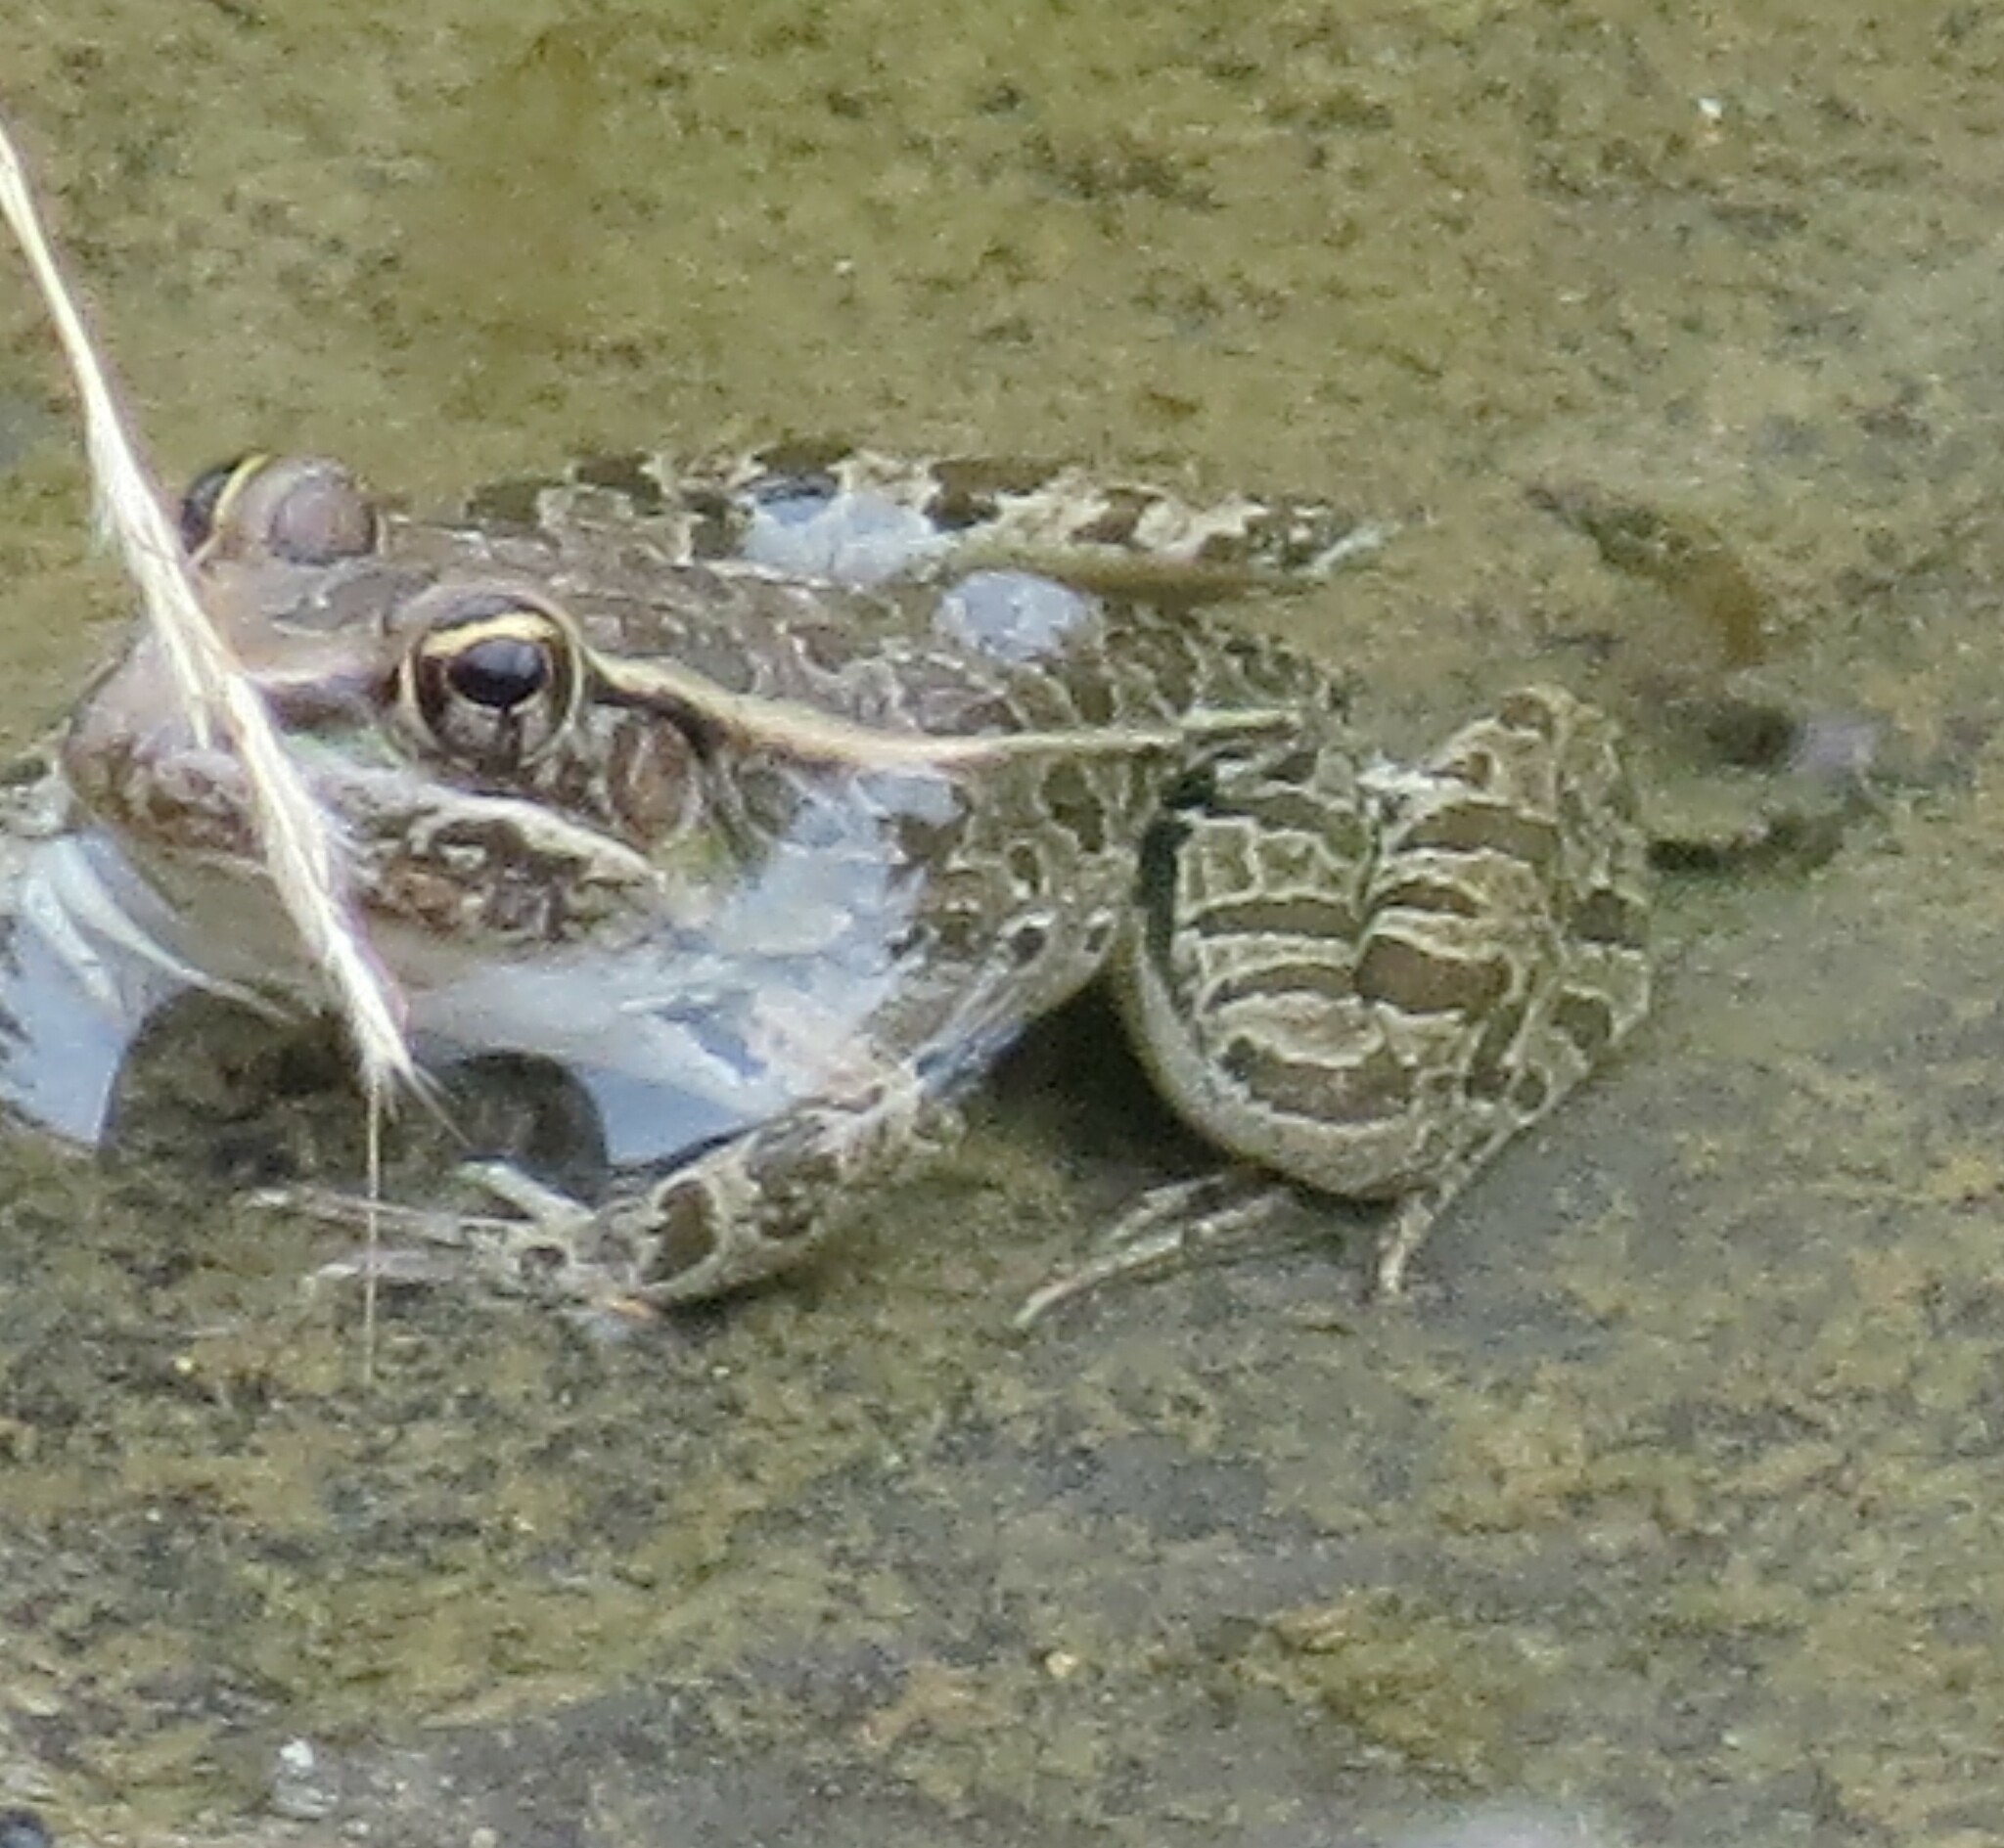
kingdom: Animalia
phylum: Chordata
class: Amphibia
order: Anura
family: Ranidae
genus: Lithobates
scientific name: Lithobates berlandieri
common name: Rio grande leopard frog
